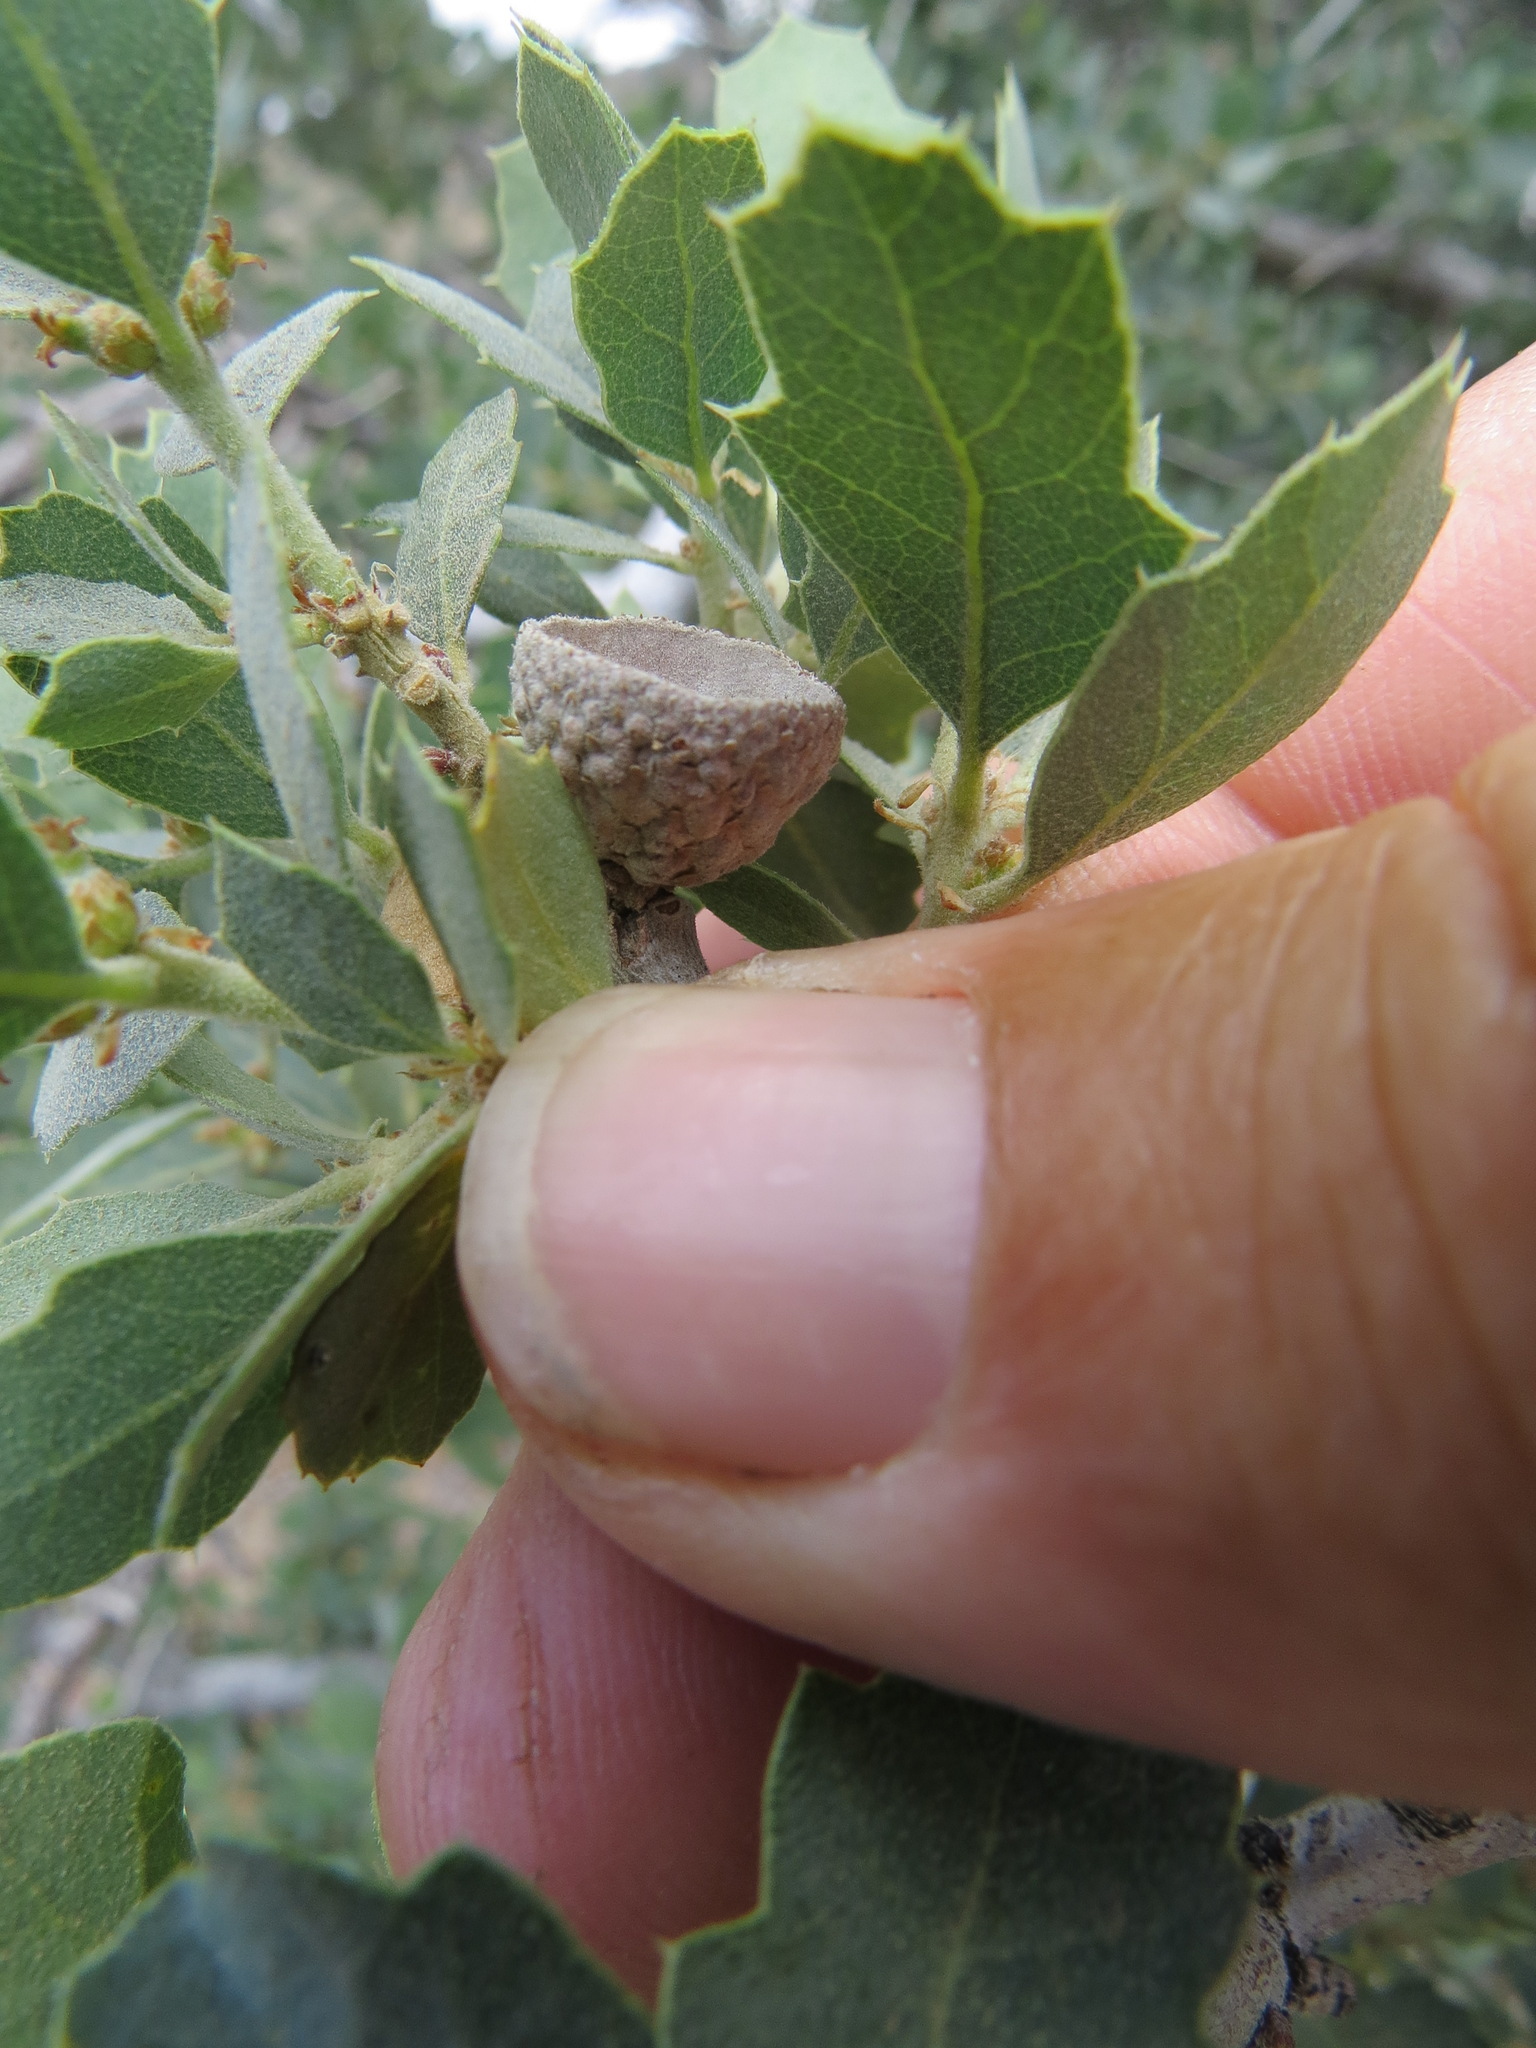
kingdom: Plantae
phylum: Tracheophyta
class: Magnoliopsida
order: Fagales
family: Fagaceae
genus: Quercus
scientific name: Quercus john-tuckeri
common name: Tucker's oak
